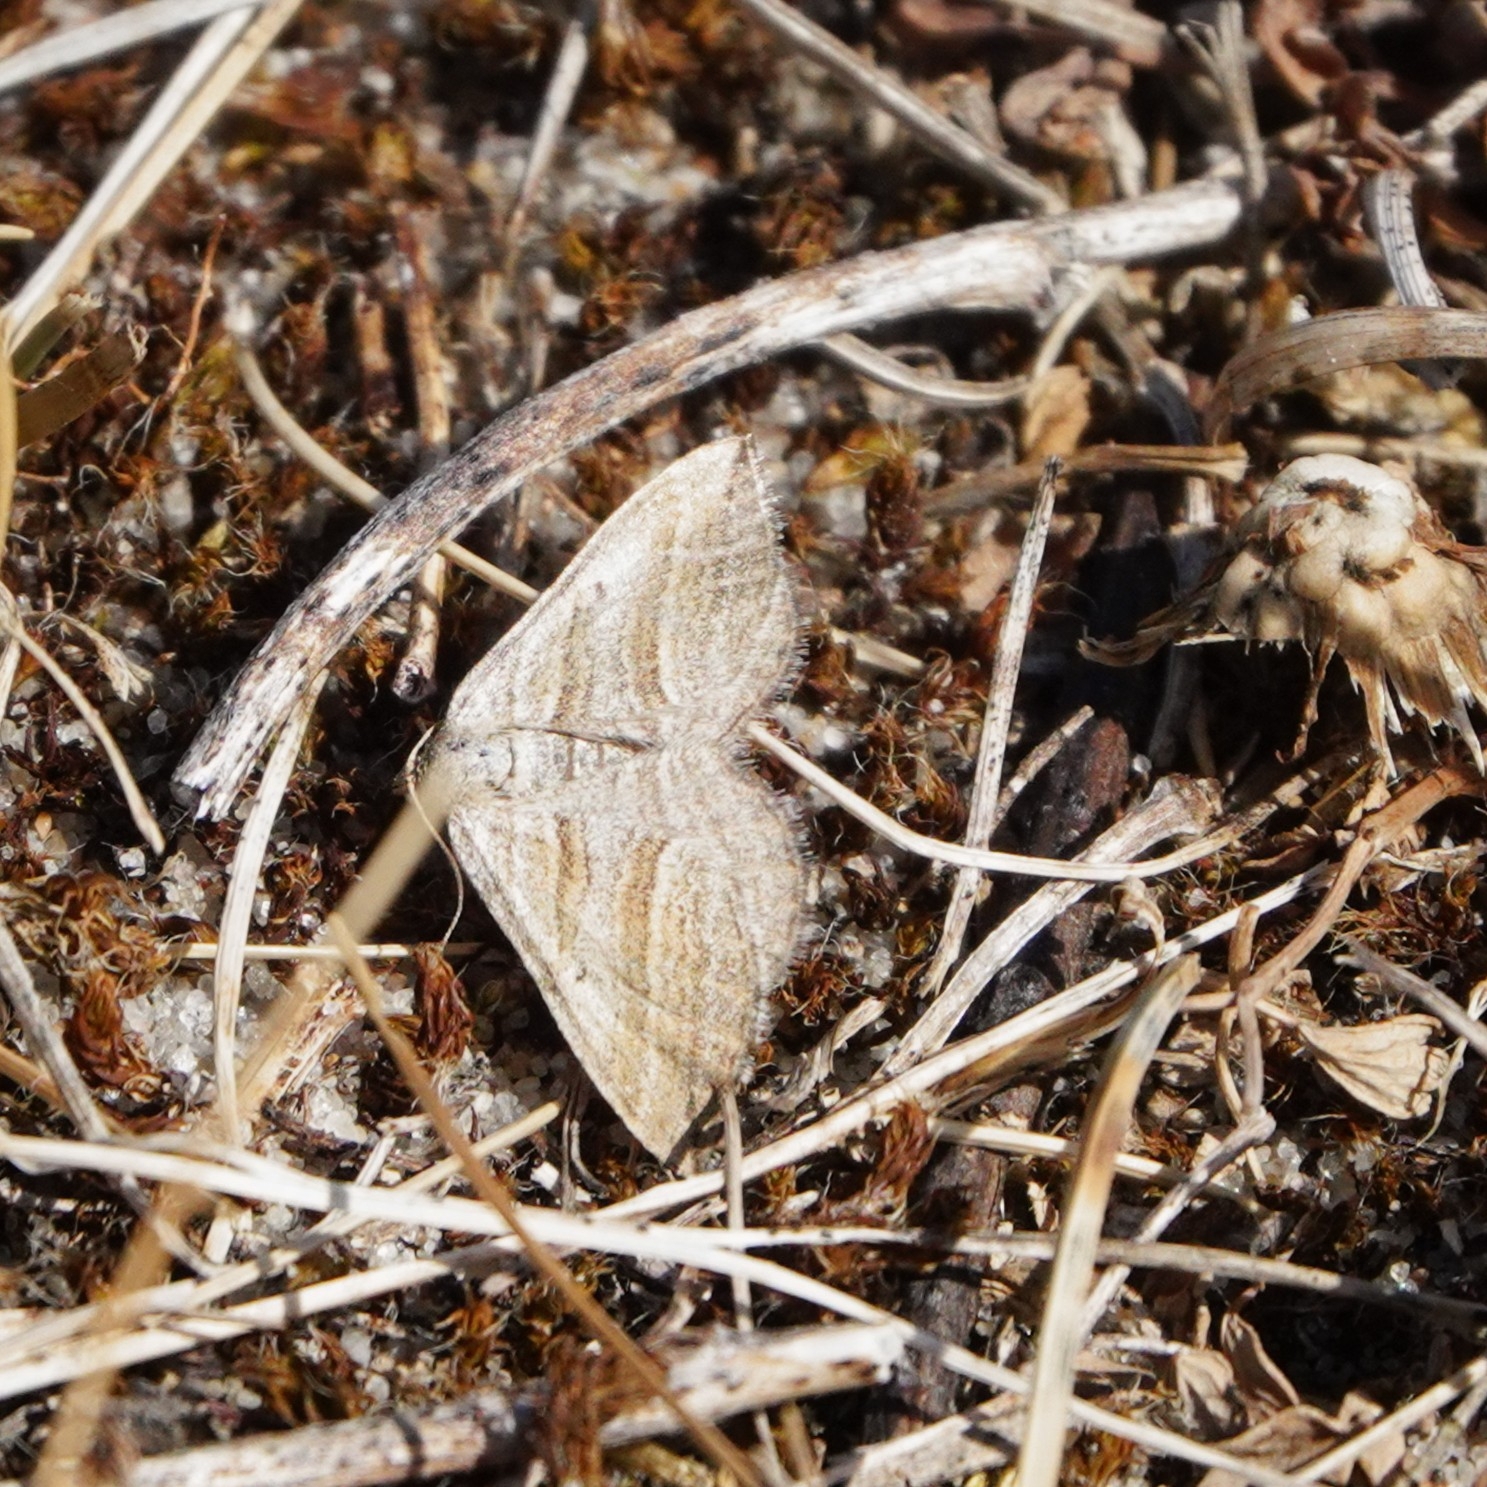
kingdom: Animalia
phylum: Arthropoda
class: Insecta
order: Lepidoptera
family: Geometridae
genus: Phibalapteryx
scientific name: Phibalapteryx virgata
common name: Oblique striped
